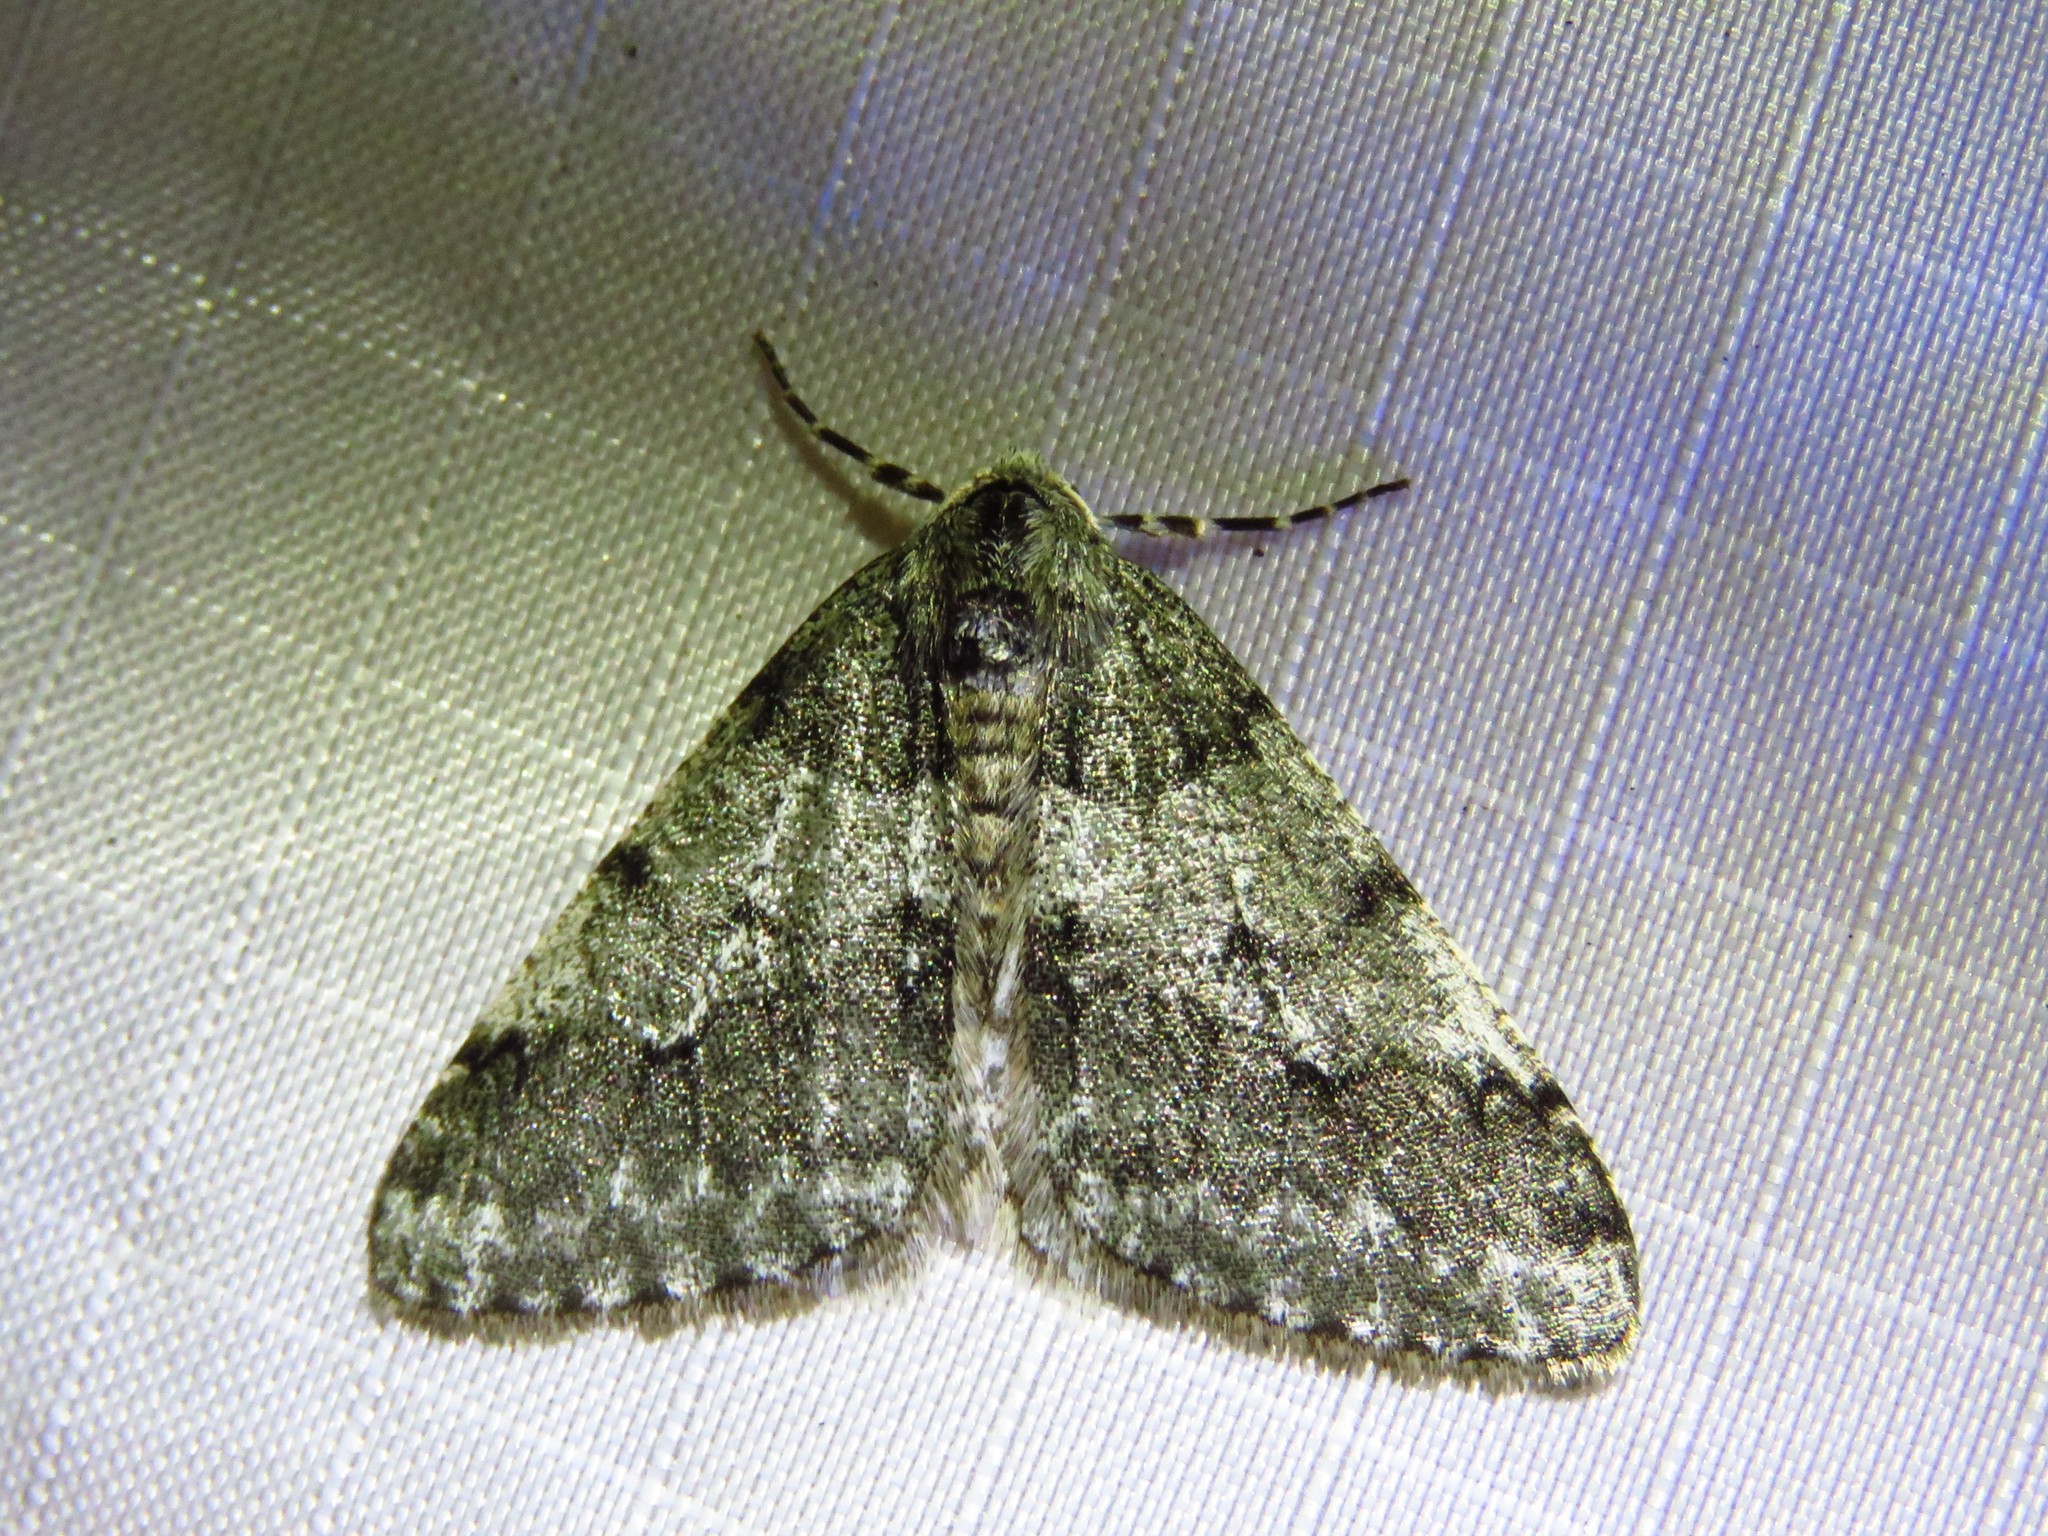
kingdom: Animalia
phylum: Arthropoda
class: Insecta
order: Lepidoptera
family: Geometridae
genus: Phigalia
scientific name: Phigalia strigataria
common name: Small phigalia
